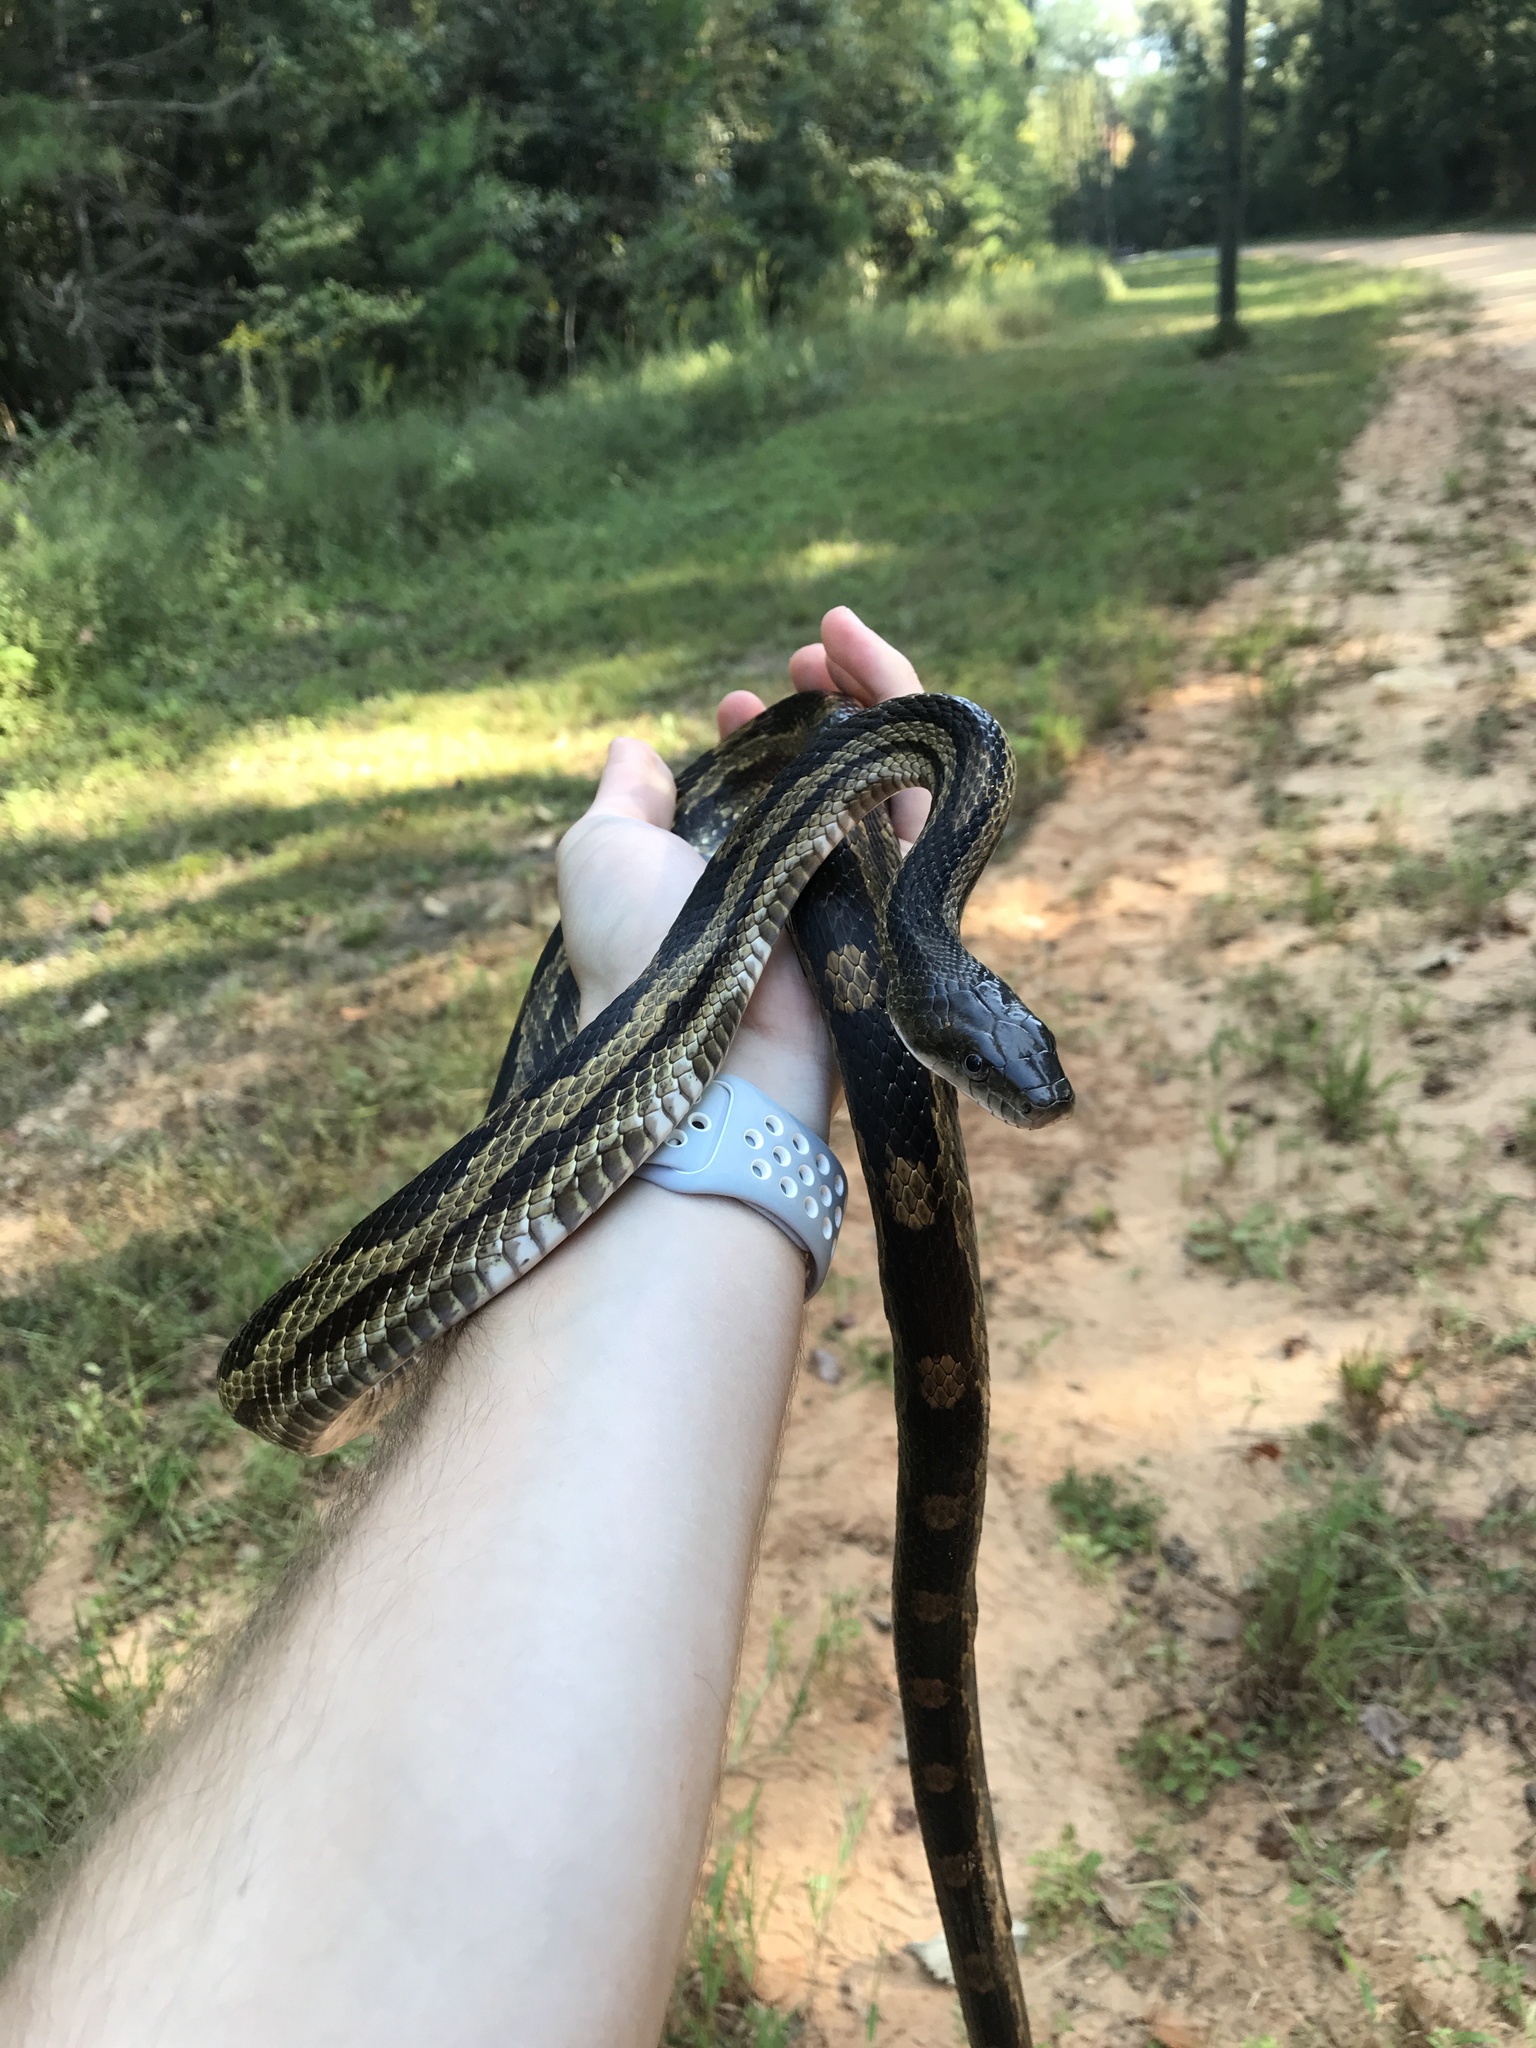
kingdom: Animalia
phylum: Chordata
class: Squamata
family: Colubridae
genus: Pantherophis
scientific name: Pantherophis spiloides
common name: Gray rat snake
